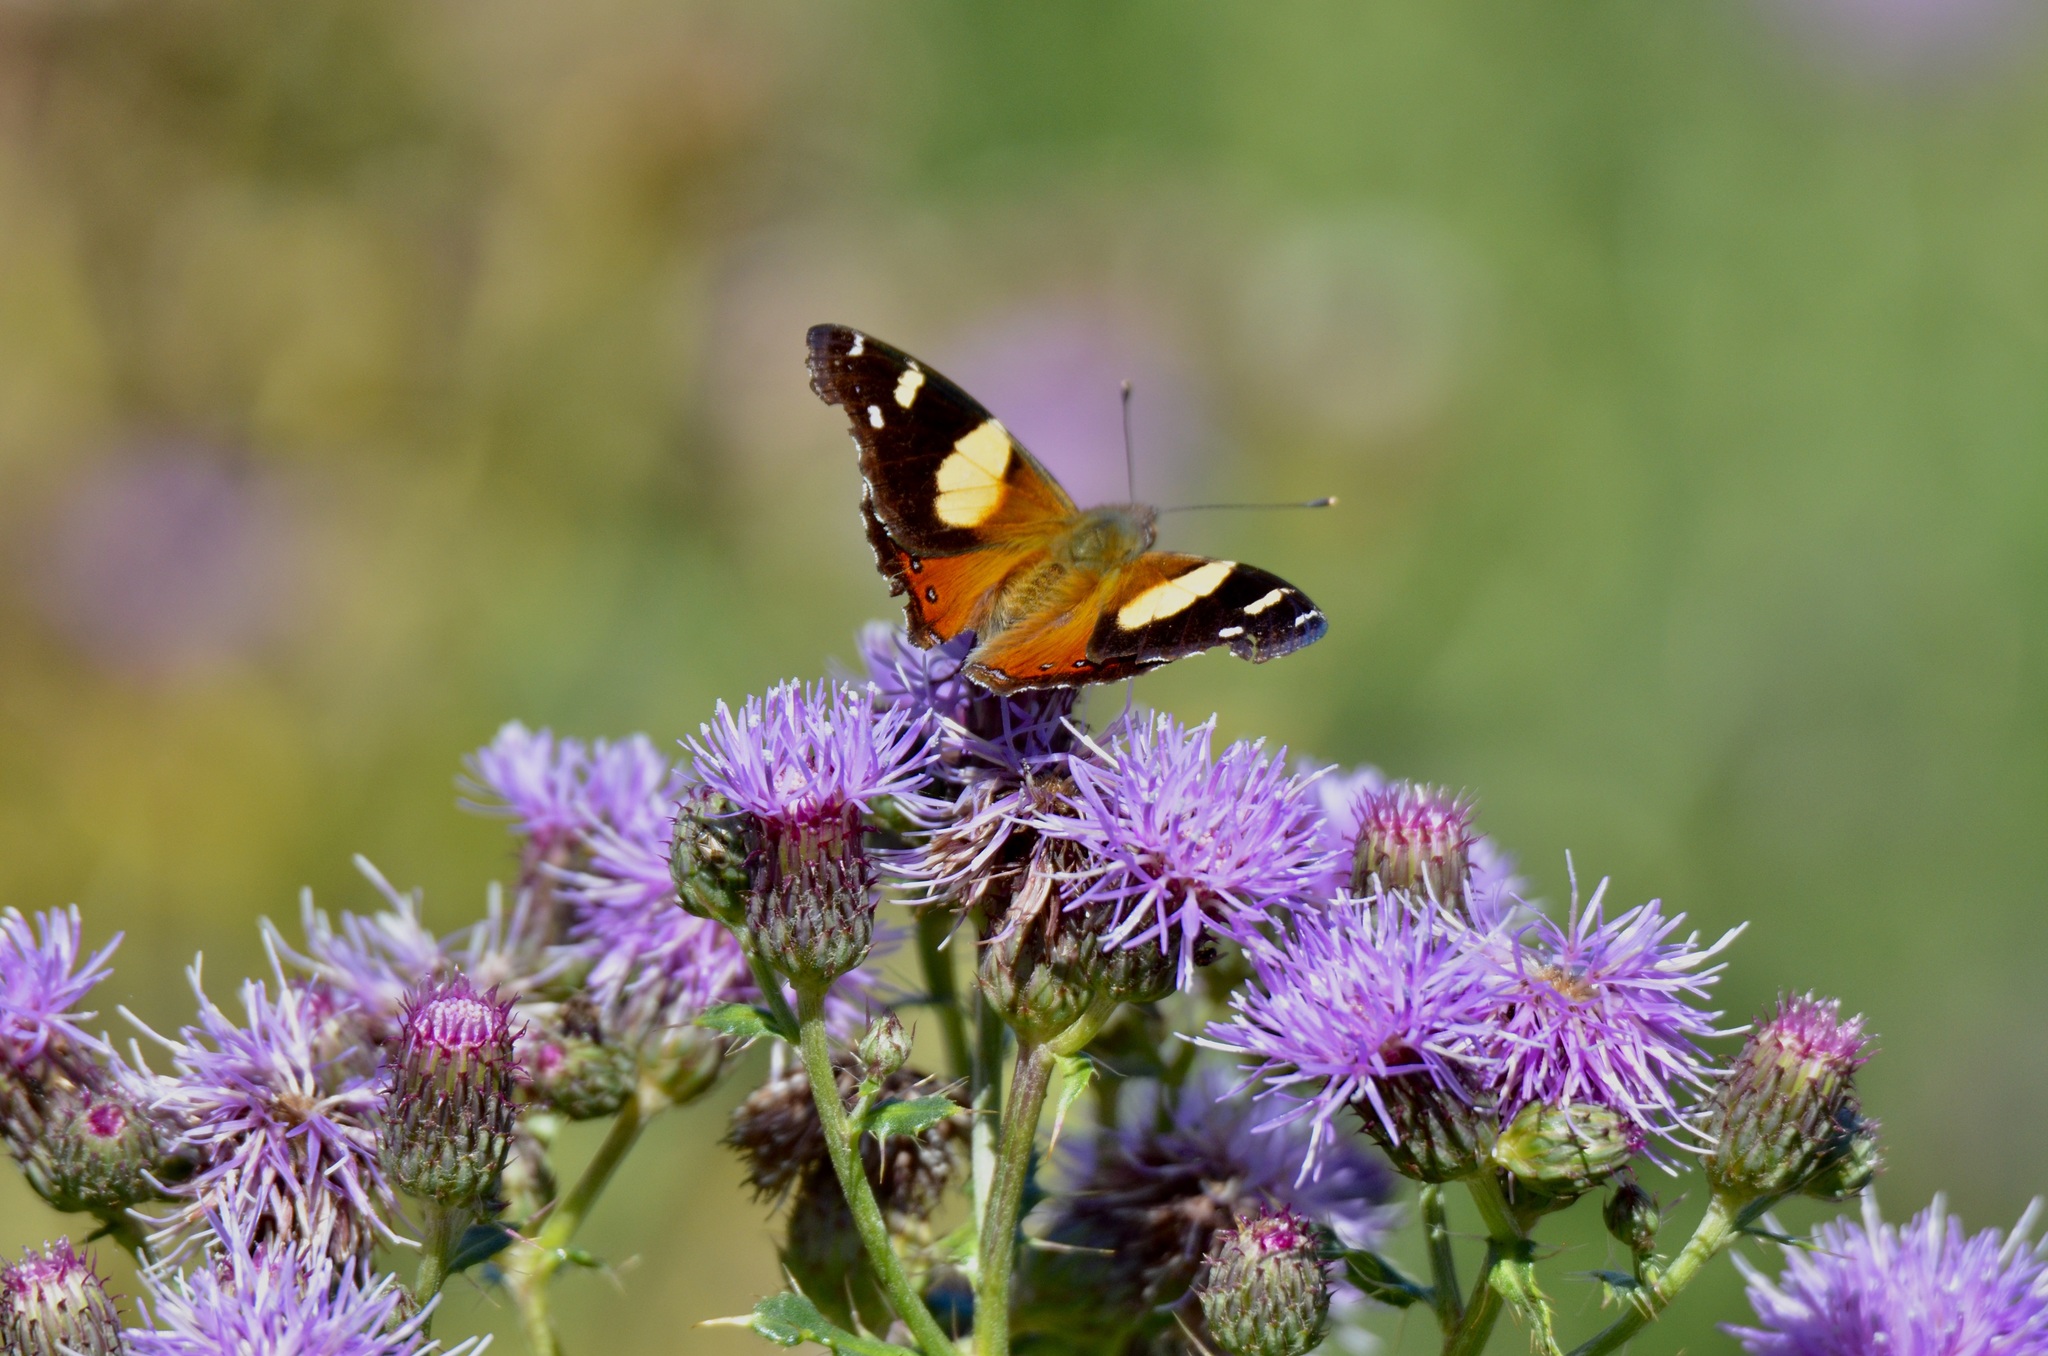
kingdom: Animalia
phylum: Arthropoda
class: Insecta
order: Lepidoptera
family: Nymphalidae
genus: Vanessa
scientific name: Vanessa itea
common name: Yellow admiral
